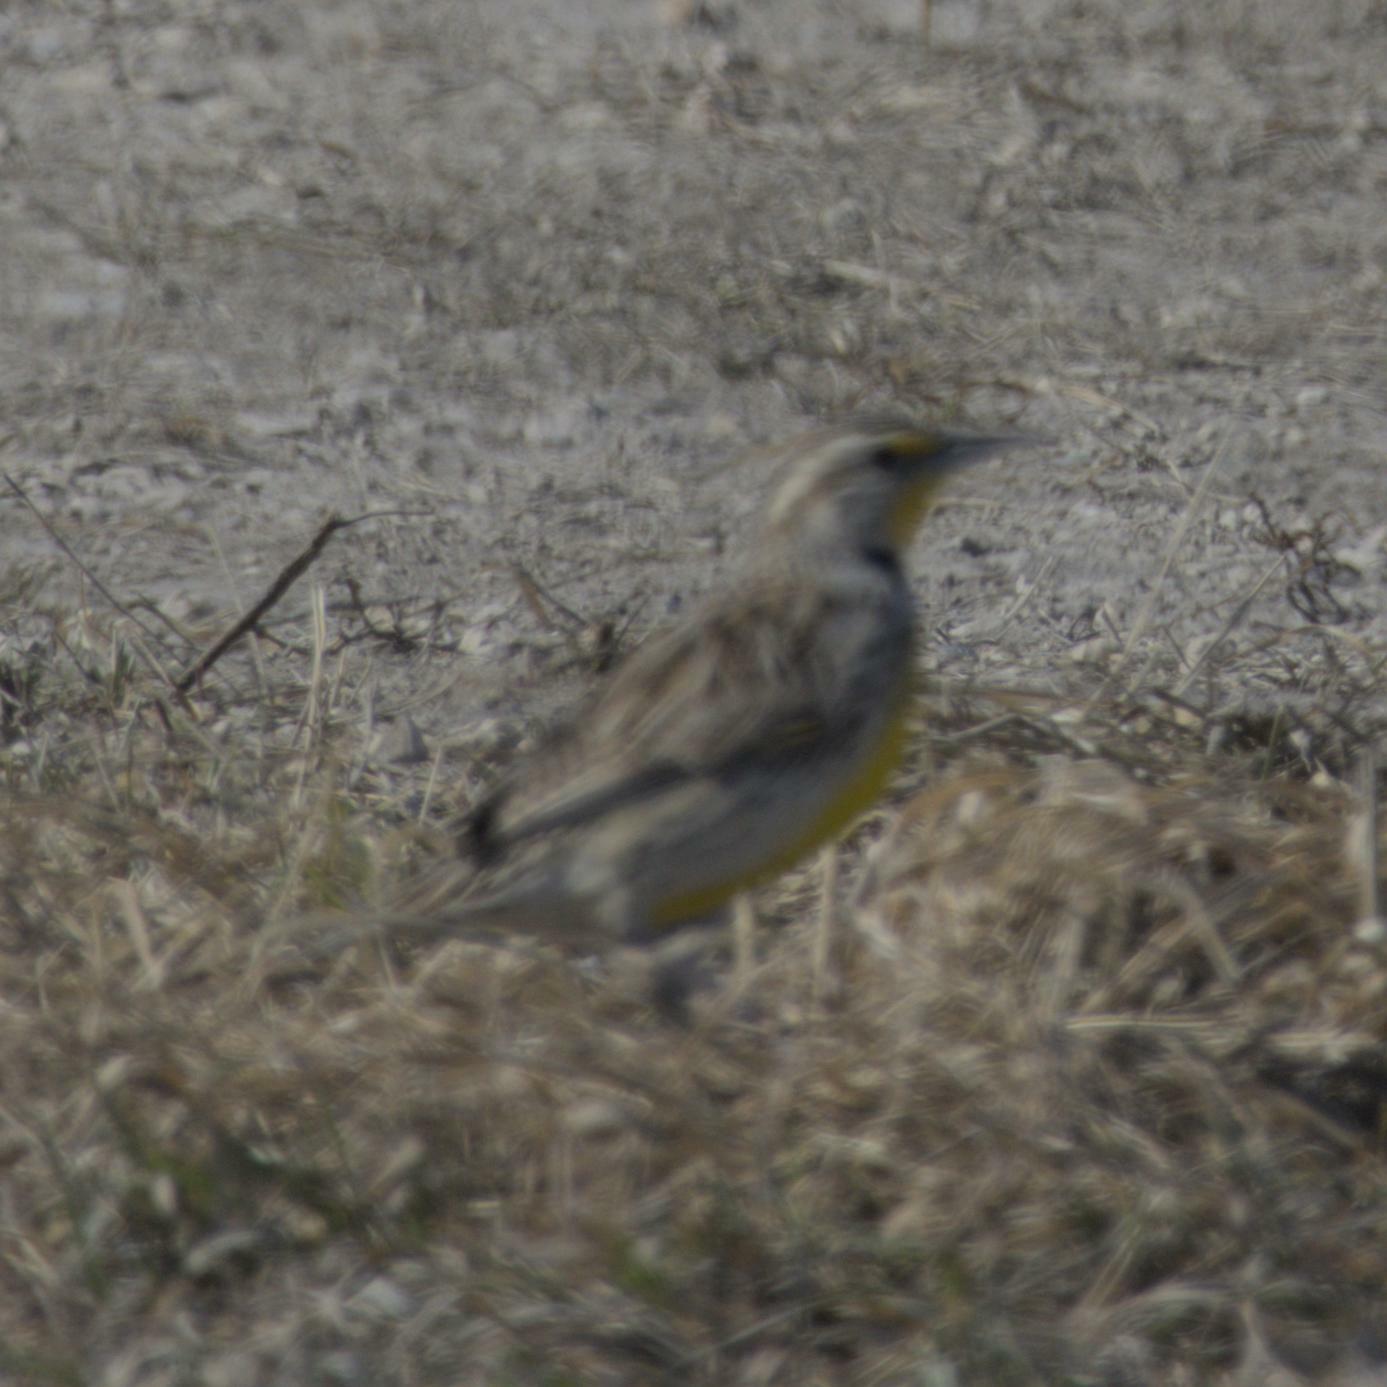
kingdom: Animalia
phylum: Chordata
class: Aves
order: Passeriformes
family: Icteridae
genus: Sturnella
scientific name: Sturnella neglecta
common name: Western meadowlark
